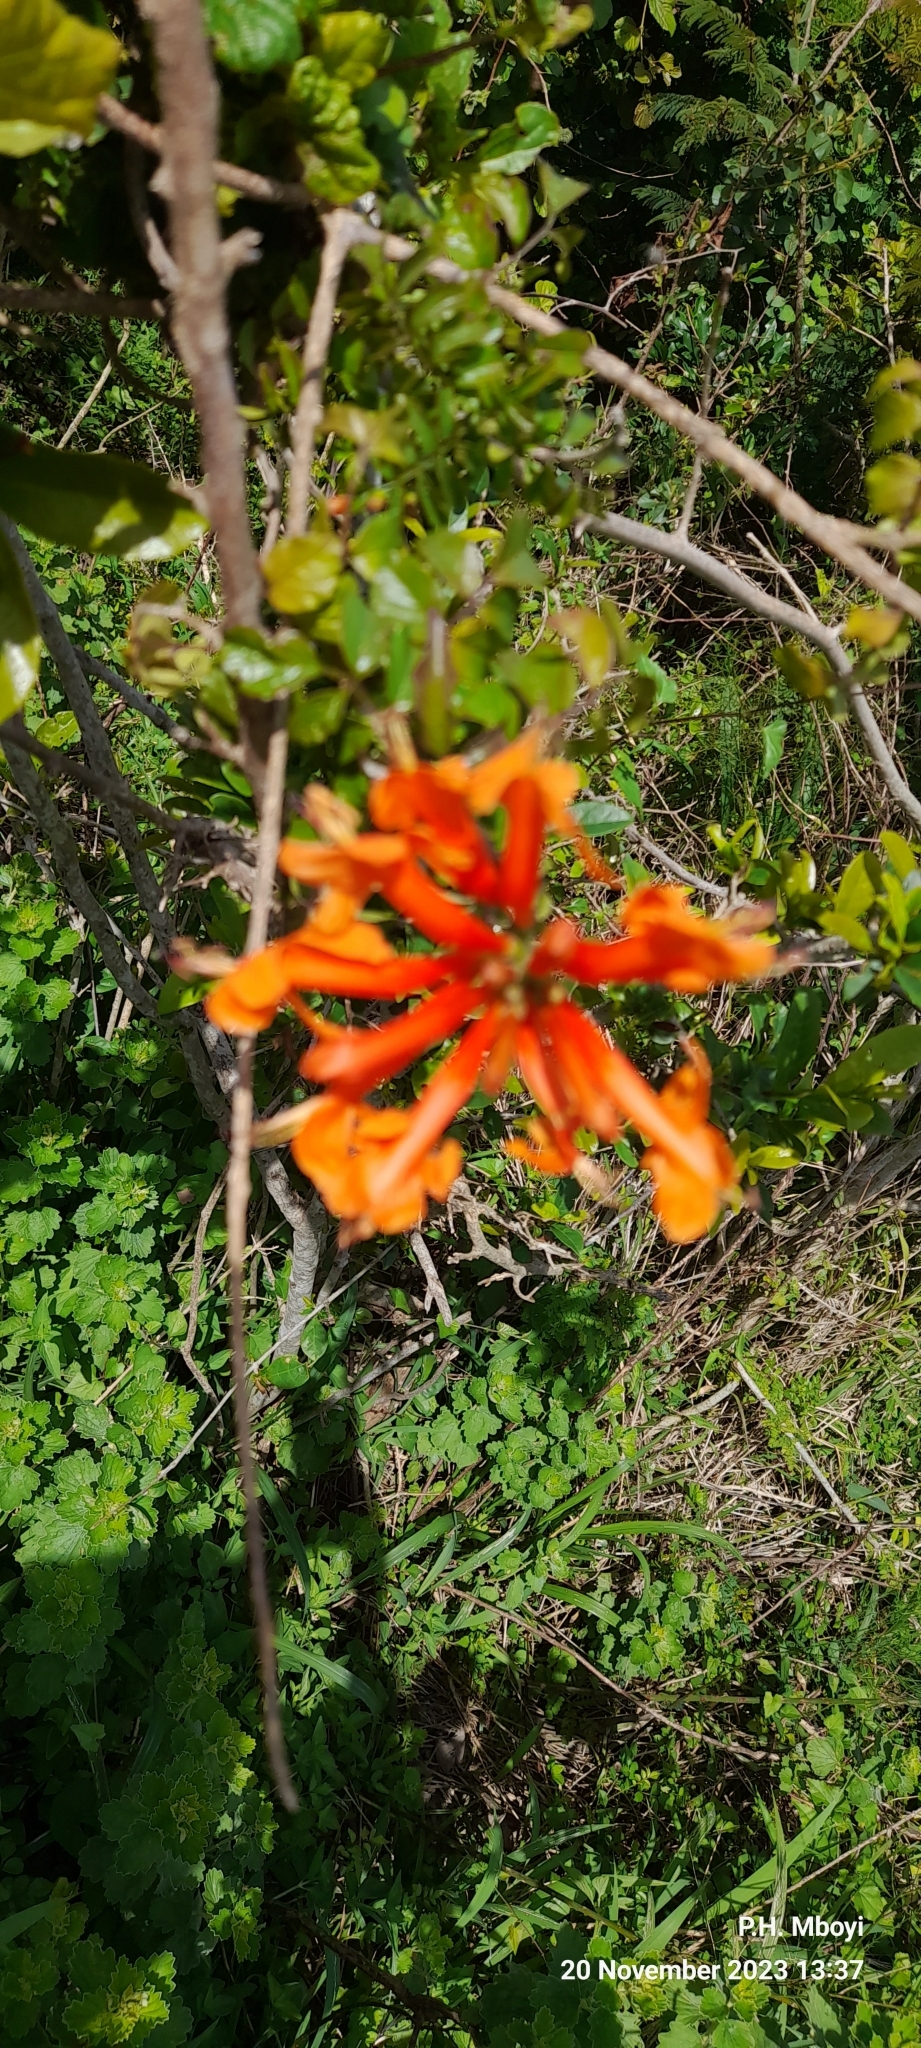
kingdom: Plantae
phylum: Tracheophyta
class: Magnoliopsida
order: Lamiales
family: Bignoniaceae
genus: Tecomaria
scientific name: Tecomaria capensis
